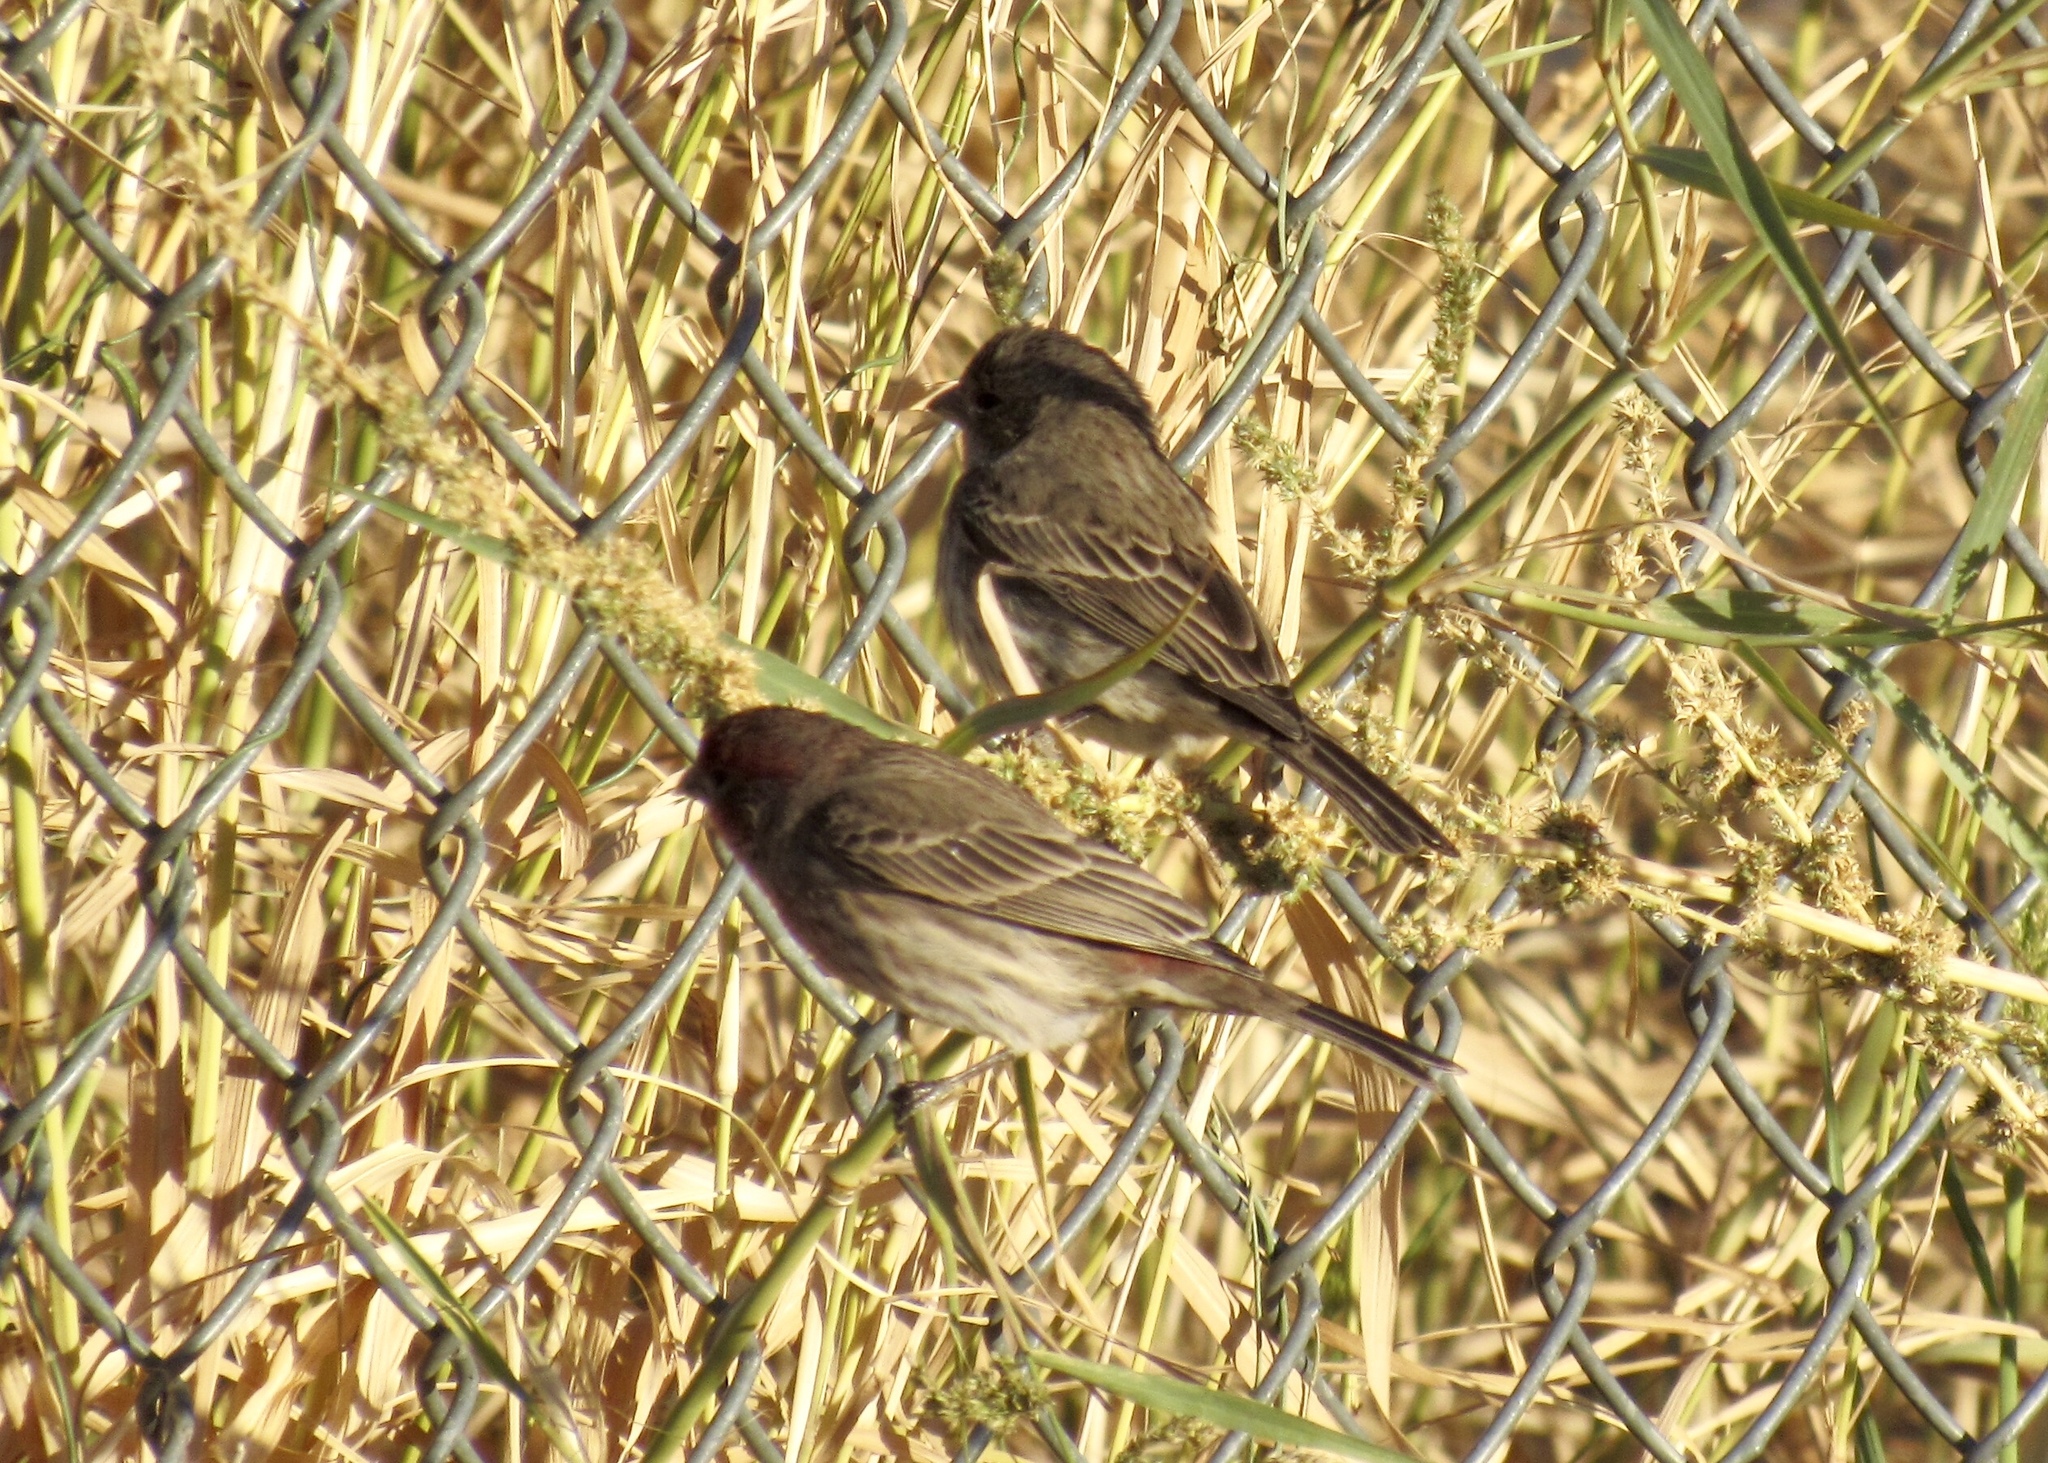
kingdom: Animalia
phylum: Chordata
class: Aves
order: Passeriformes
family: Fringillidae
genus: Haemorhous
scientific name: Haemorhous mexicanus
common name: House finch
